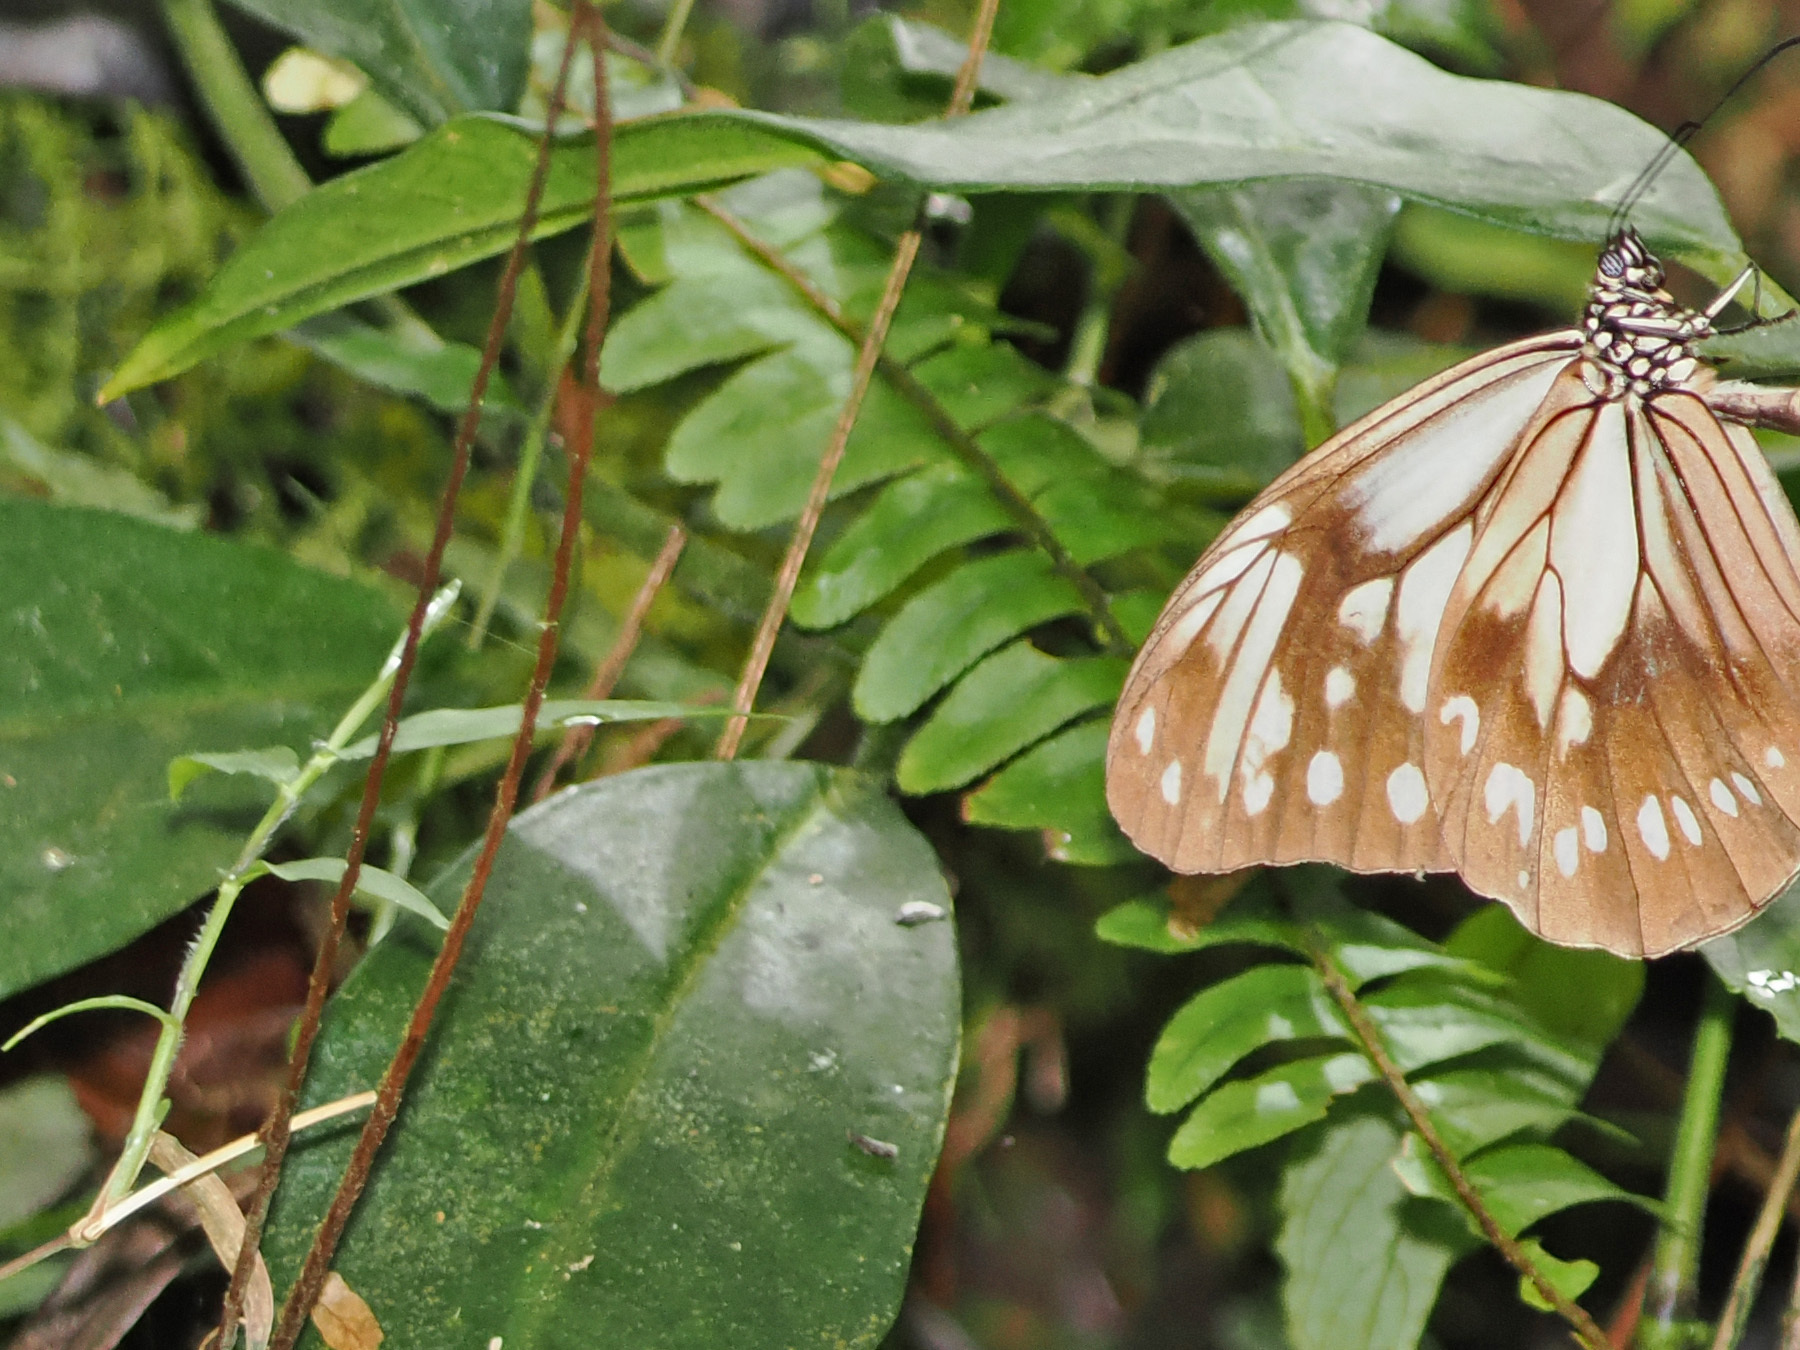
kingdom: Animalia
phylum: Arthropoda
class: Insecta
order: Lepidoptera
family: Nymphalidae
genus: Parantica
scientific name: Parantica sulewattan
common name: Bonthain tiger
